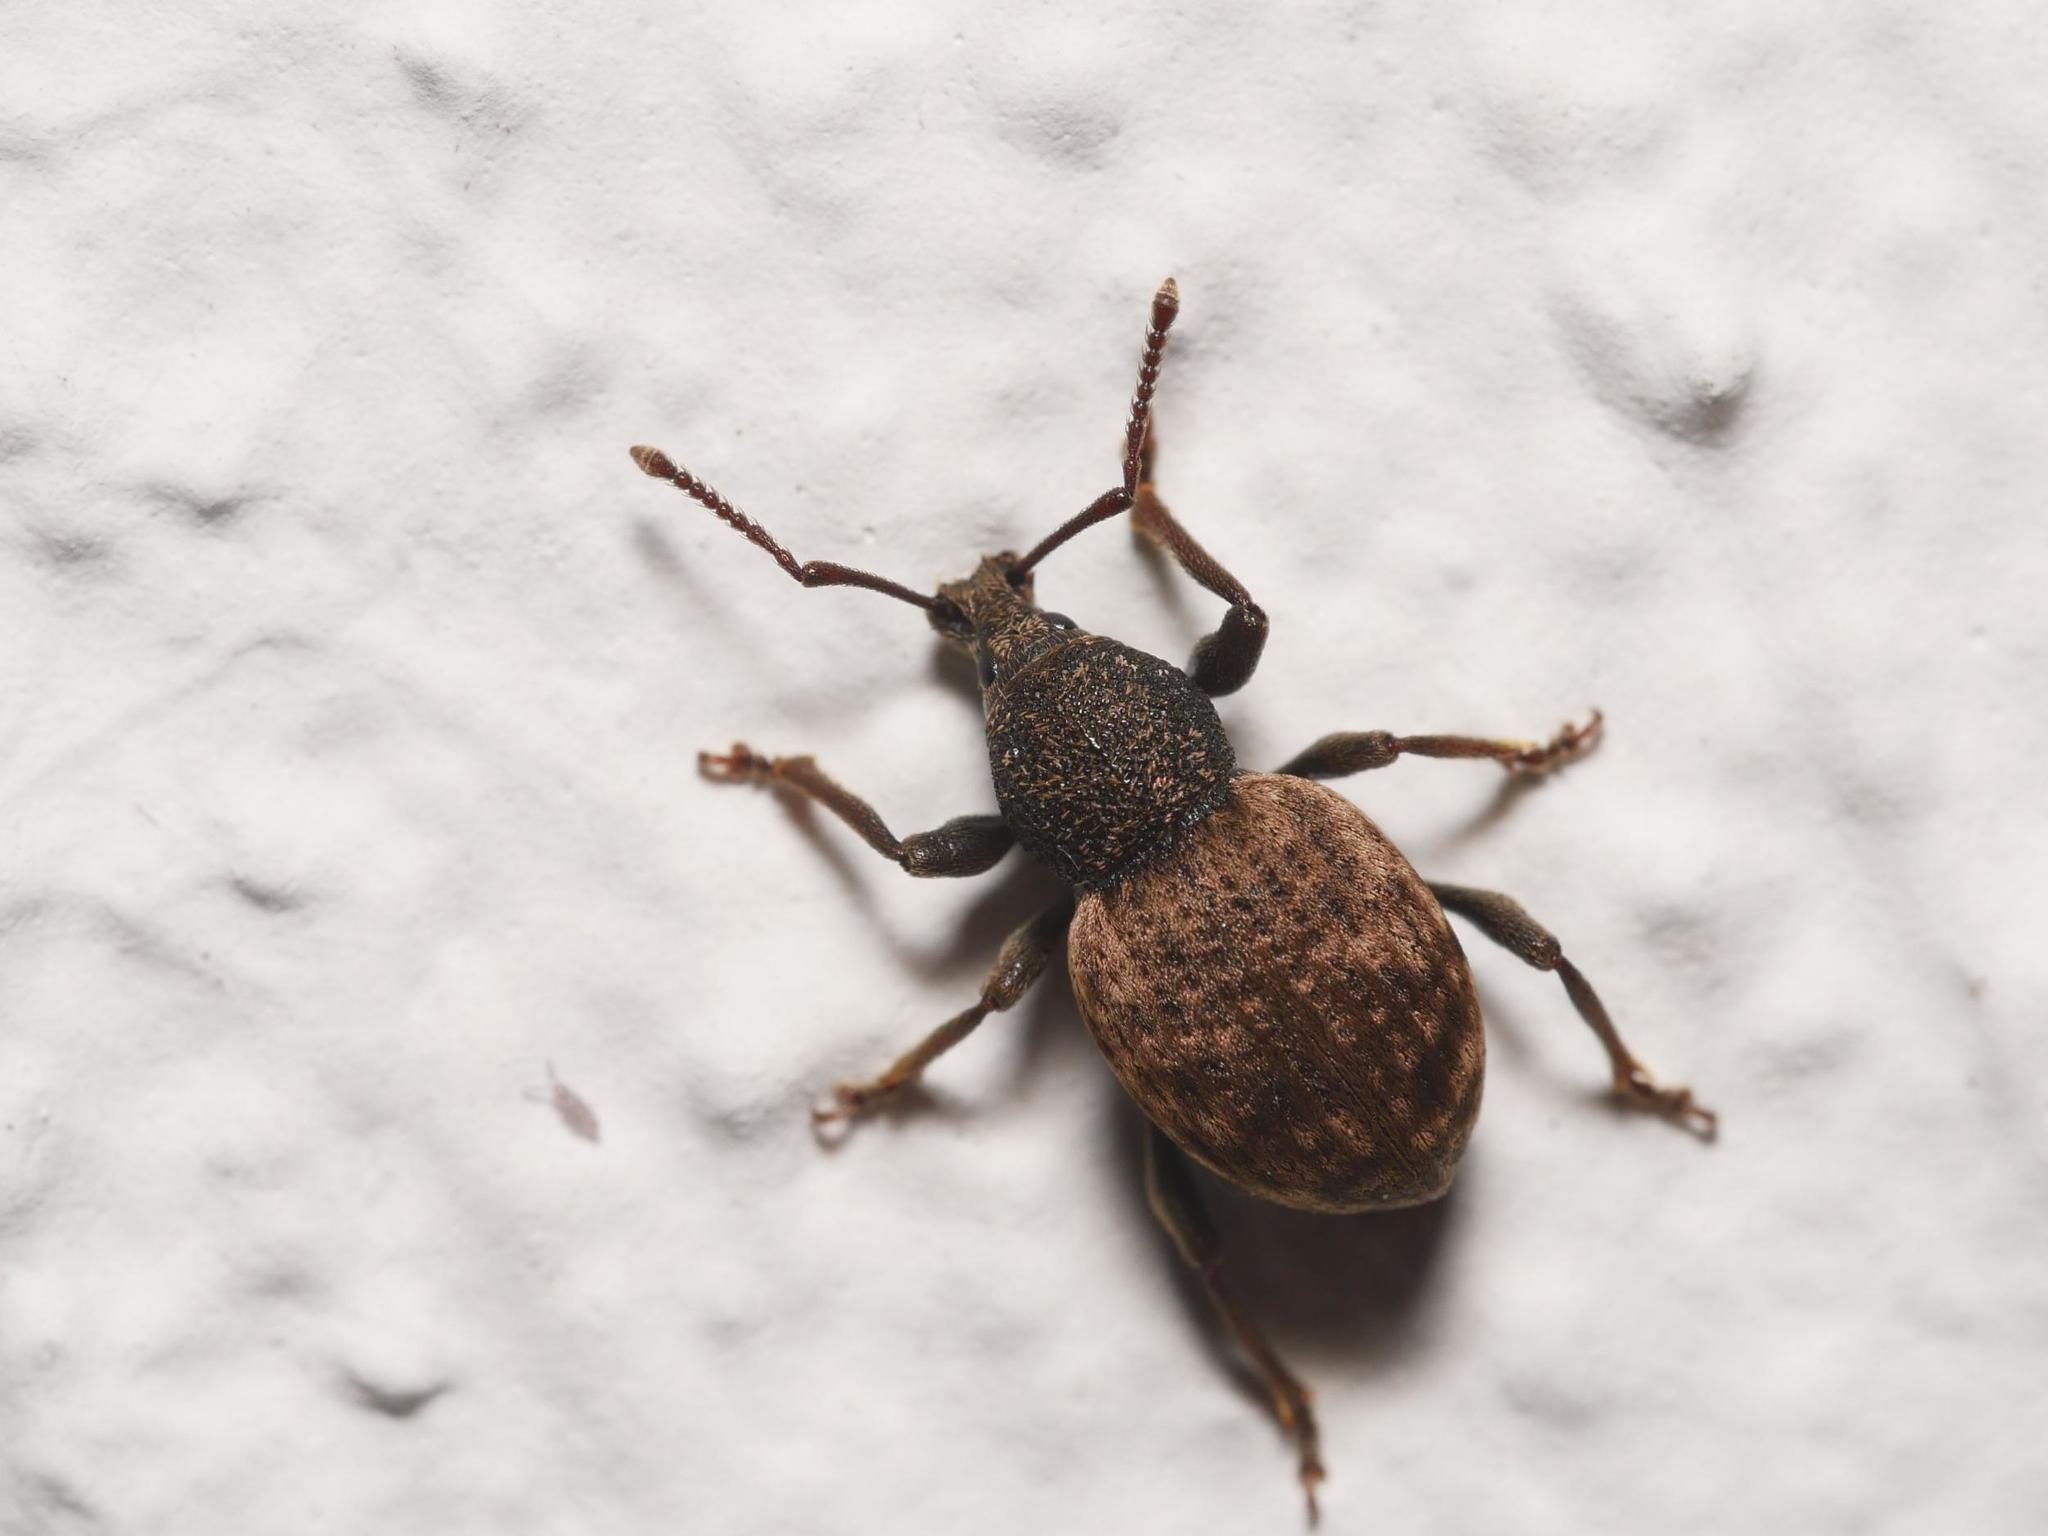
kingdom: Animalia
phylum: Arthropoda
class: Insecta
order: Coleoptera
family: Curculionidae
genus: Otiorhynchus
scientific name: Otiorhynchus raucus
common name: Weevil
